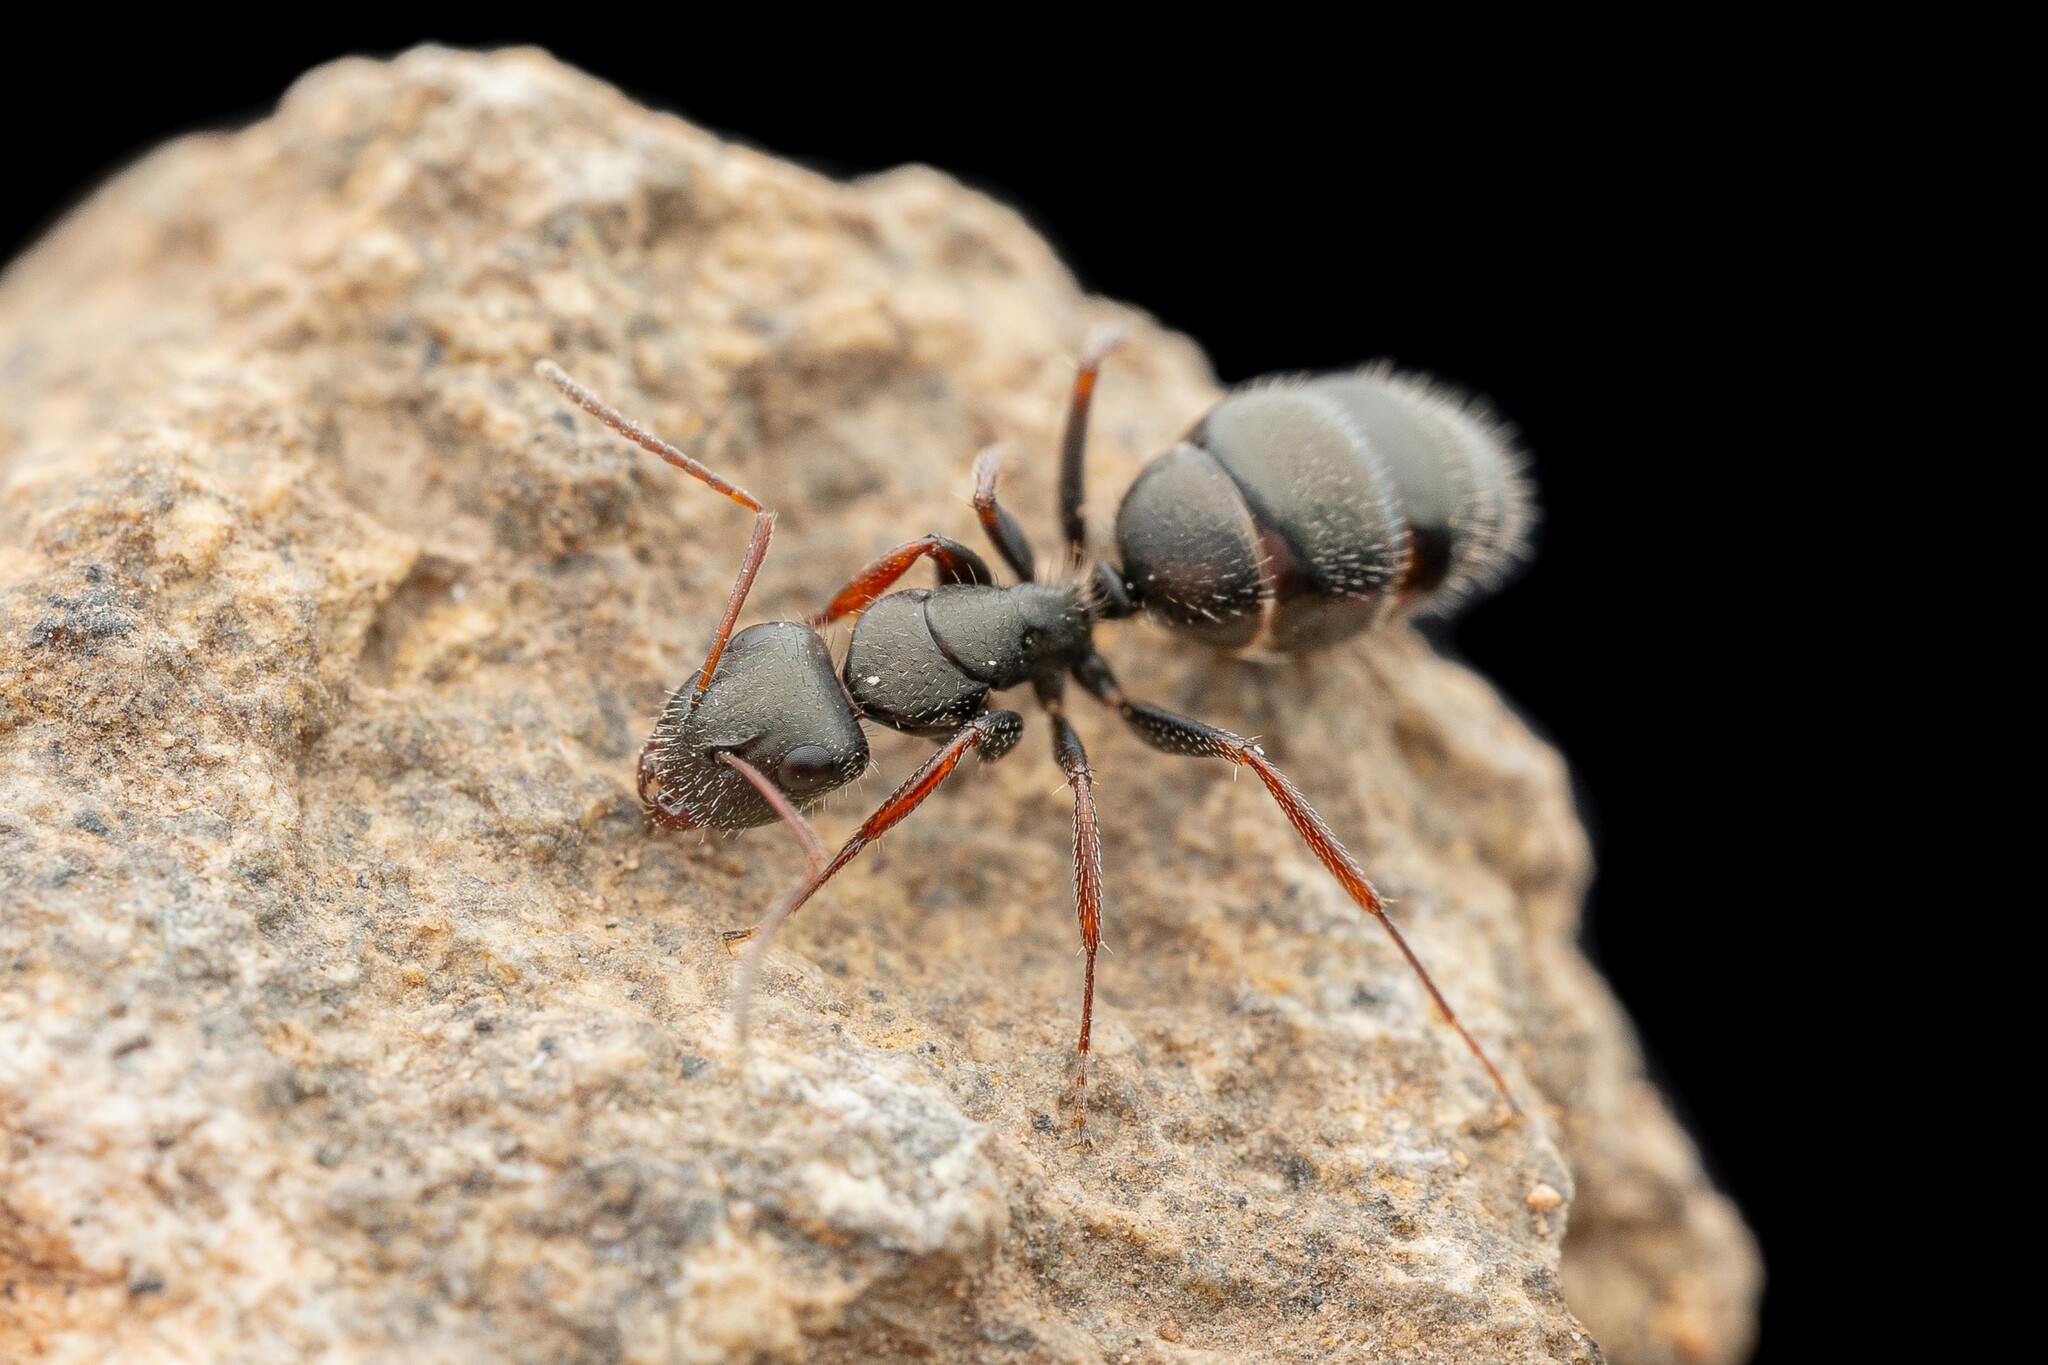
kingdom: Animalia
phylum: Arthropoda
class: Insecta
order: Hymenoptera
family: Formicidae
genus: Camponotus
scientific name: Camponotus mina
